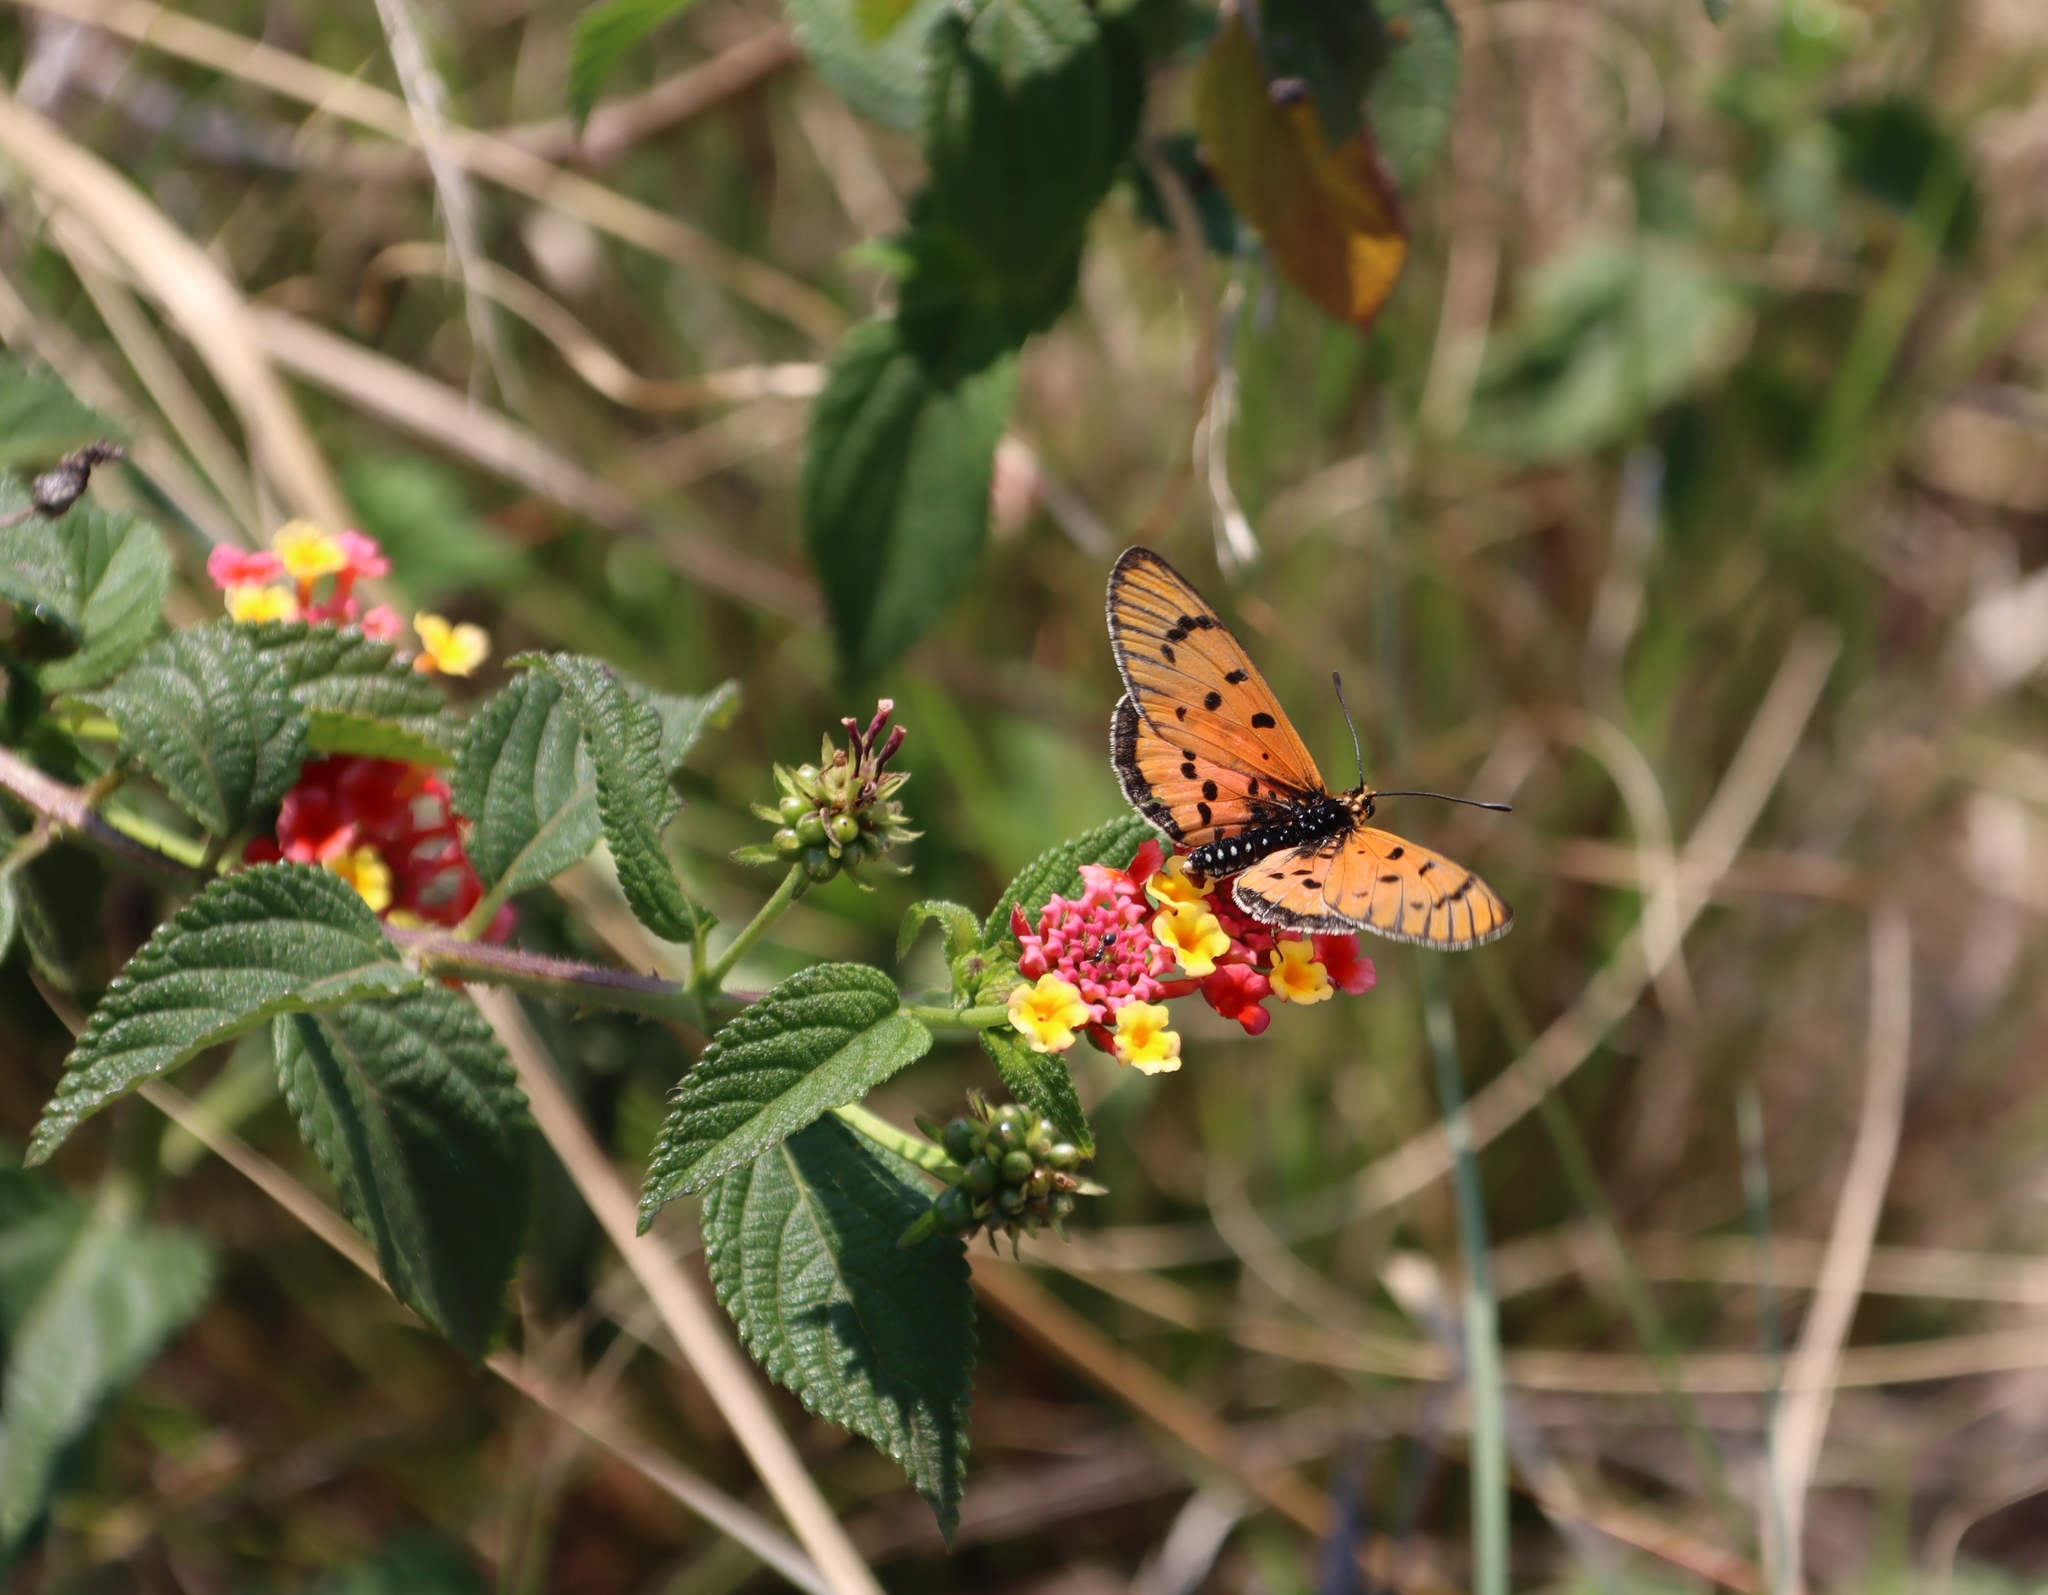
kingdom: Plantae
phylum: Tracheophyta
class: Magnoliopsida
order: Lamiales
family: Verbenaceae
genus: Lantana
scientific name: Lantana camara
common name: Lantana
